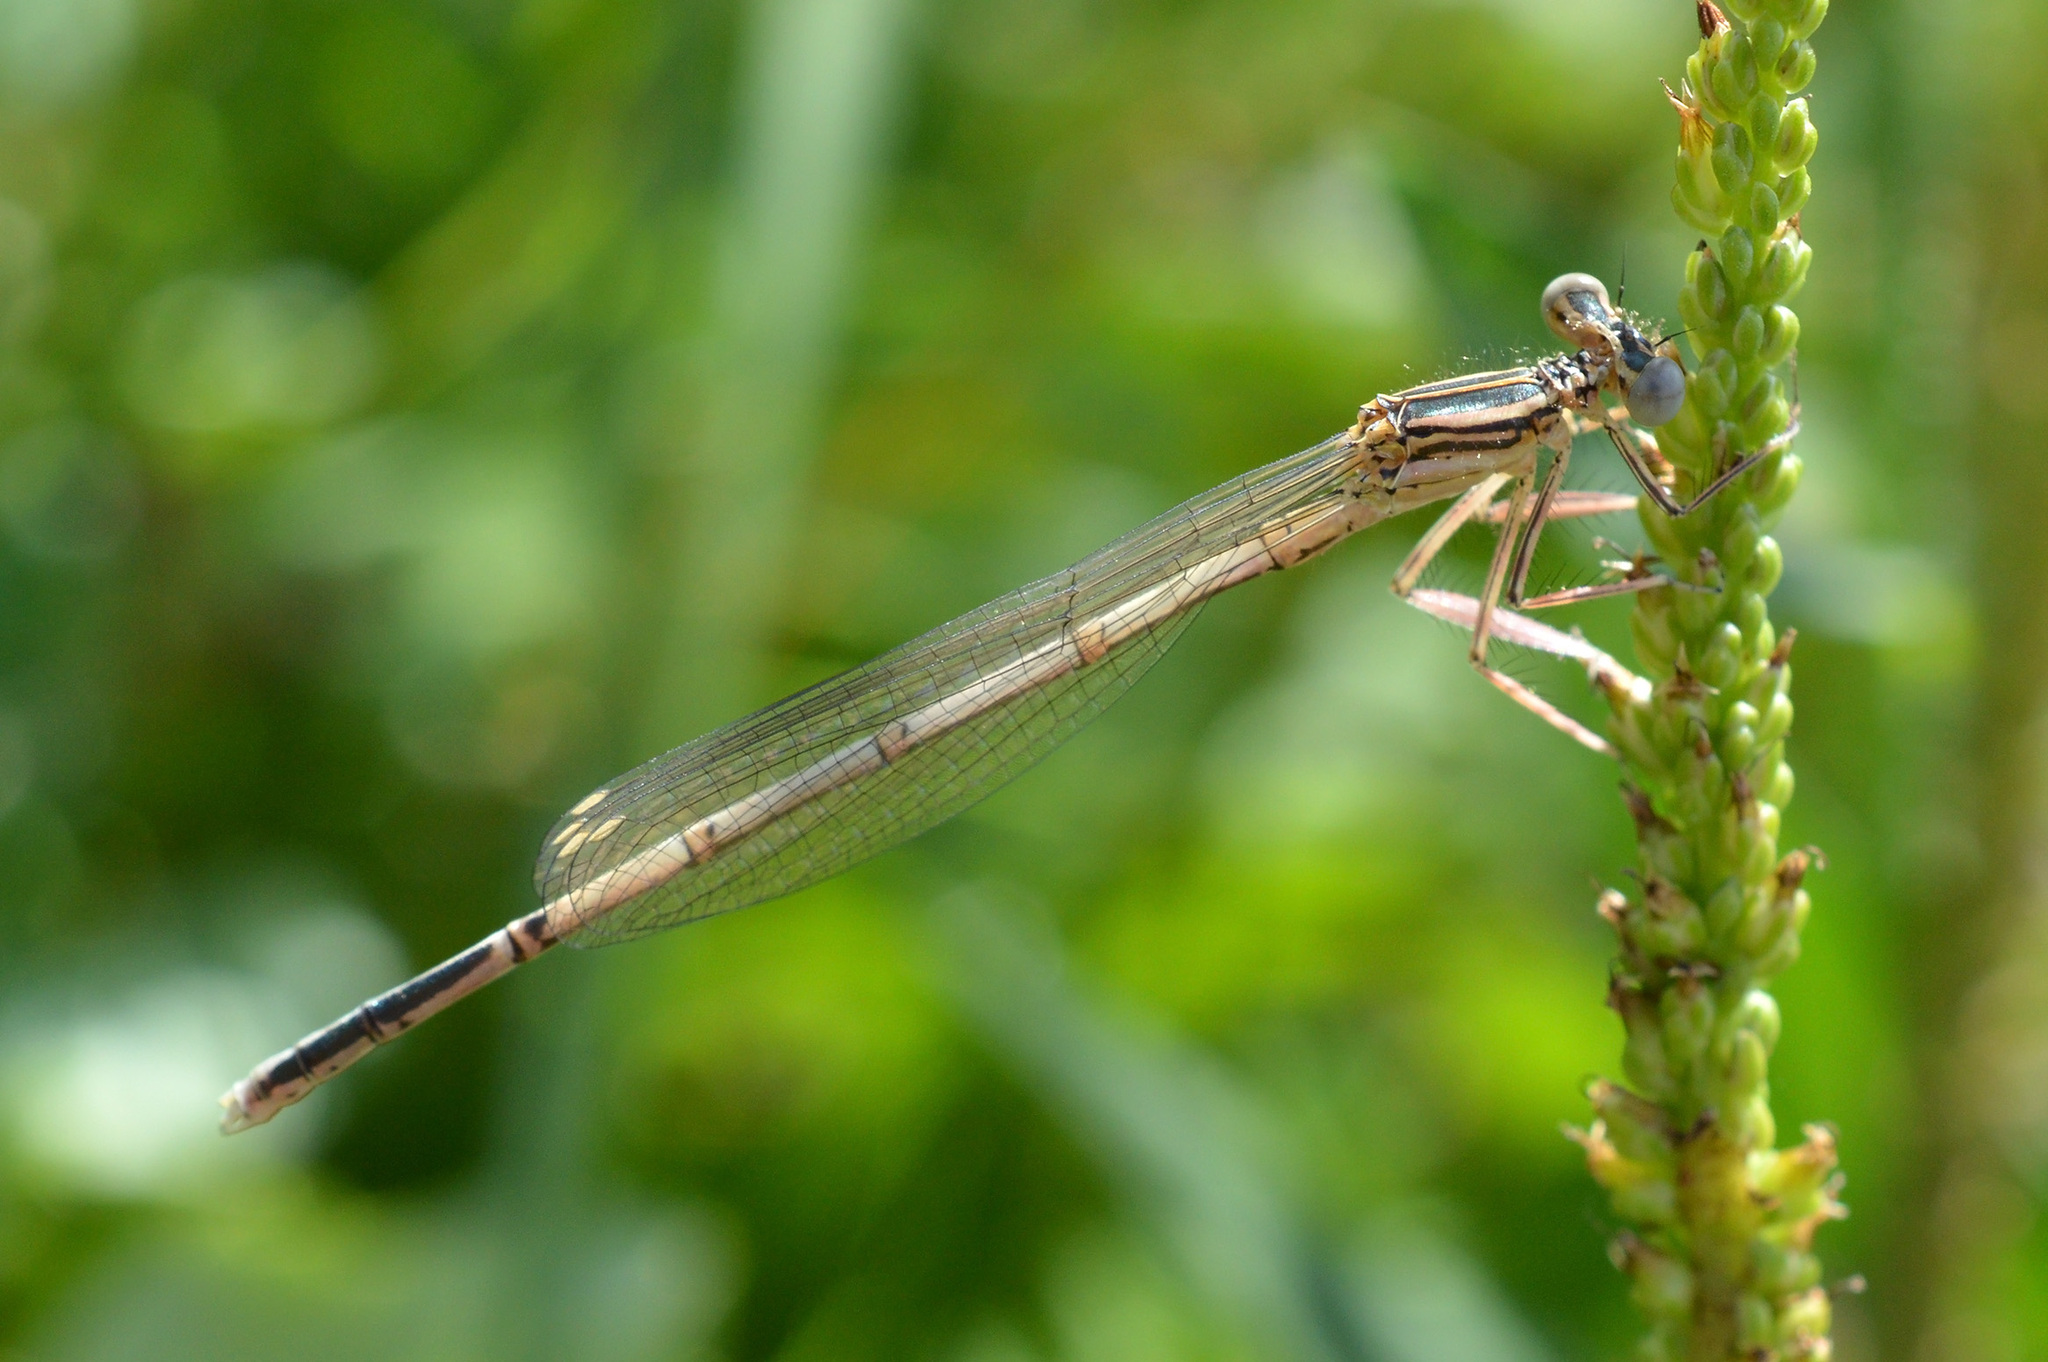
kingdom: Animalia
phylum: Arthropoda
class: Insecta
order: Odonata
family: Platycnemididae
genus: Platycnemis
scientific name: Platycnemis pennipes
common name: White-legged damselfly
